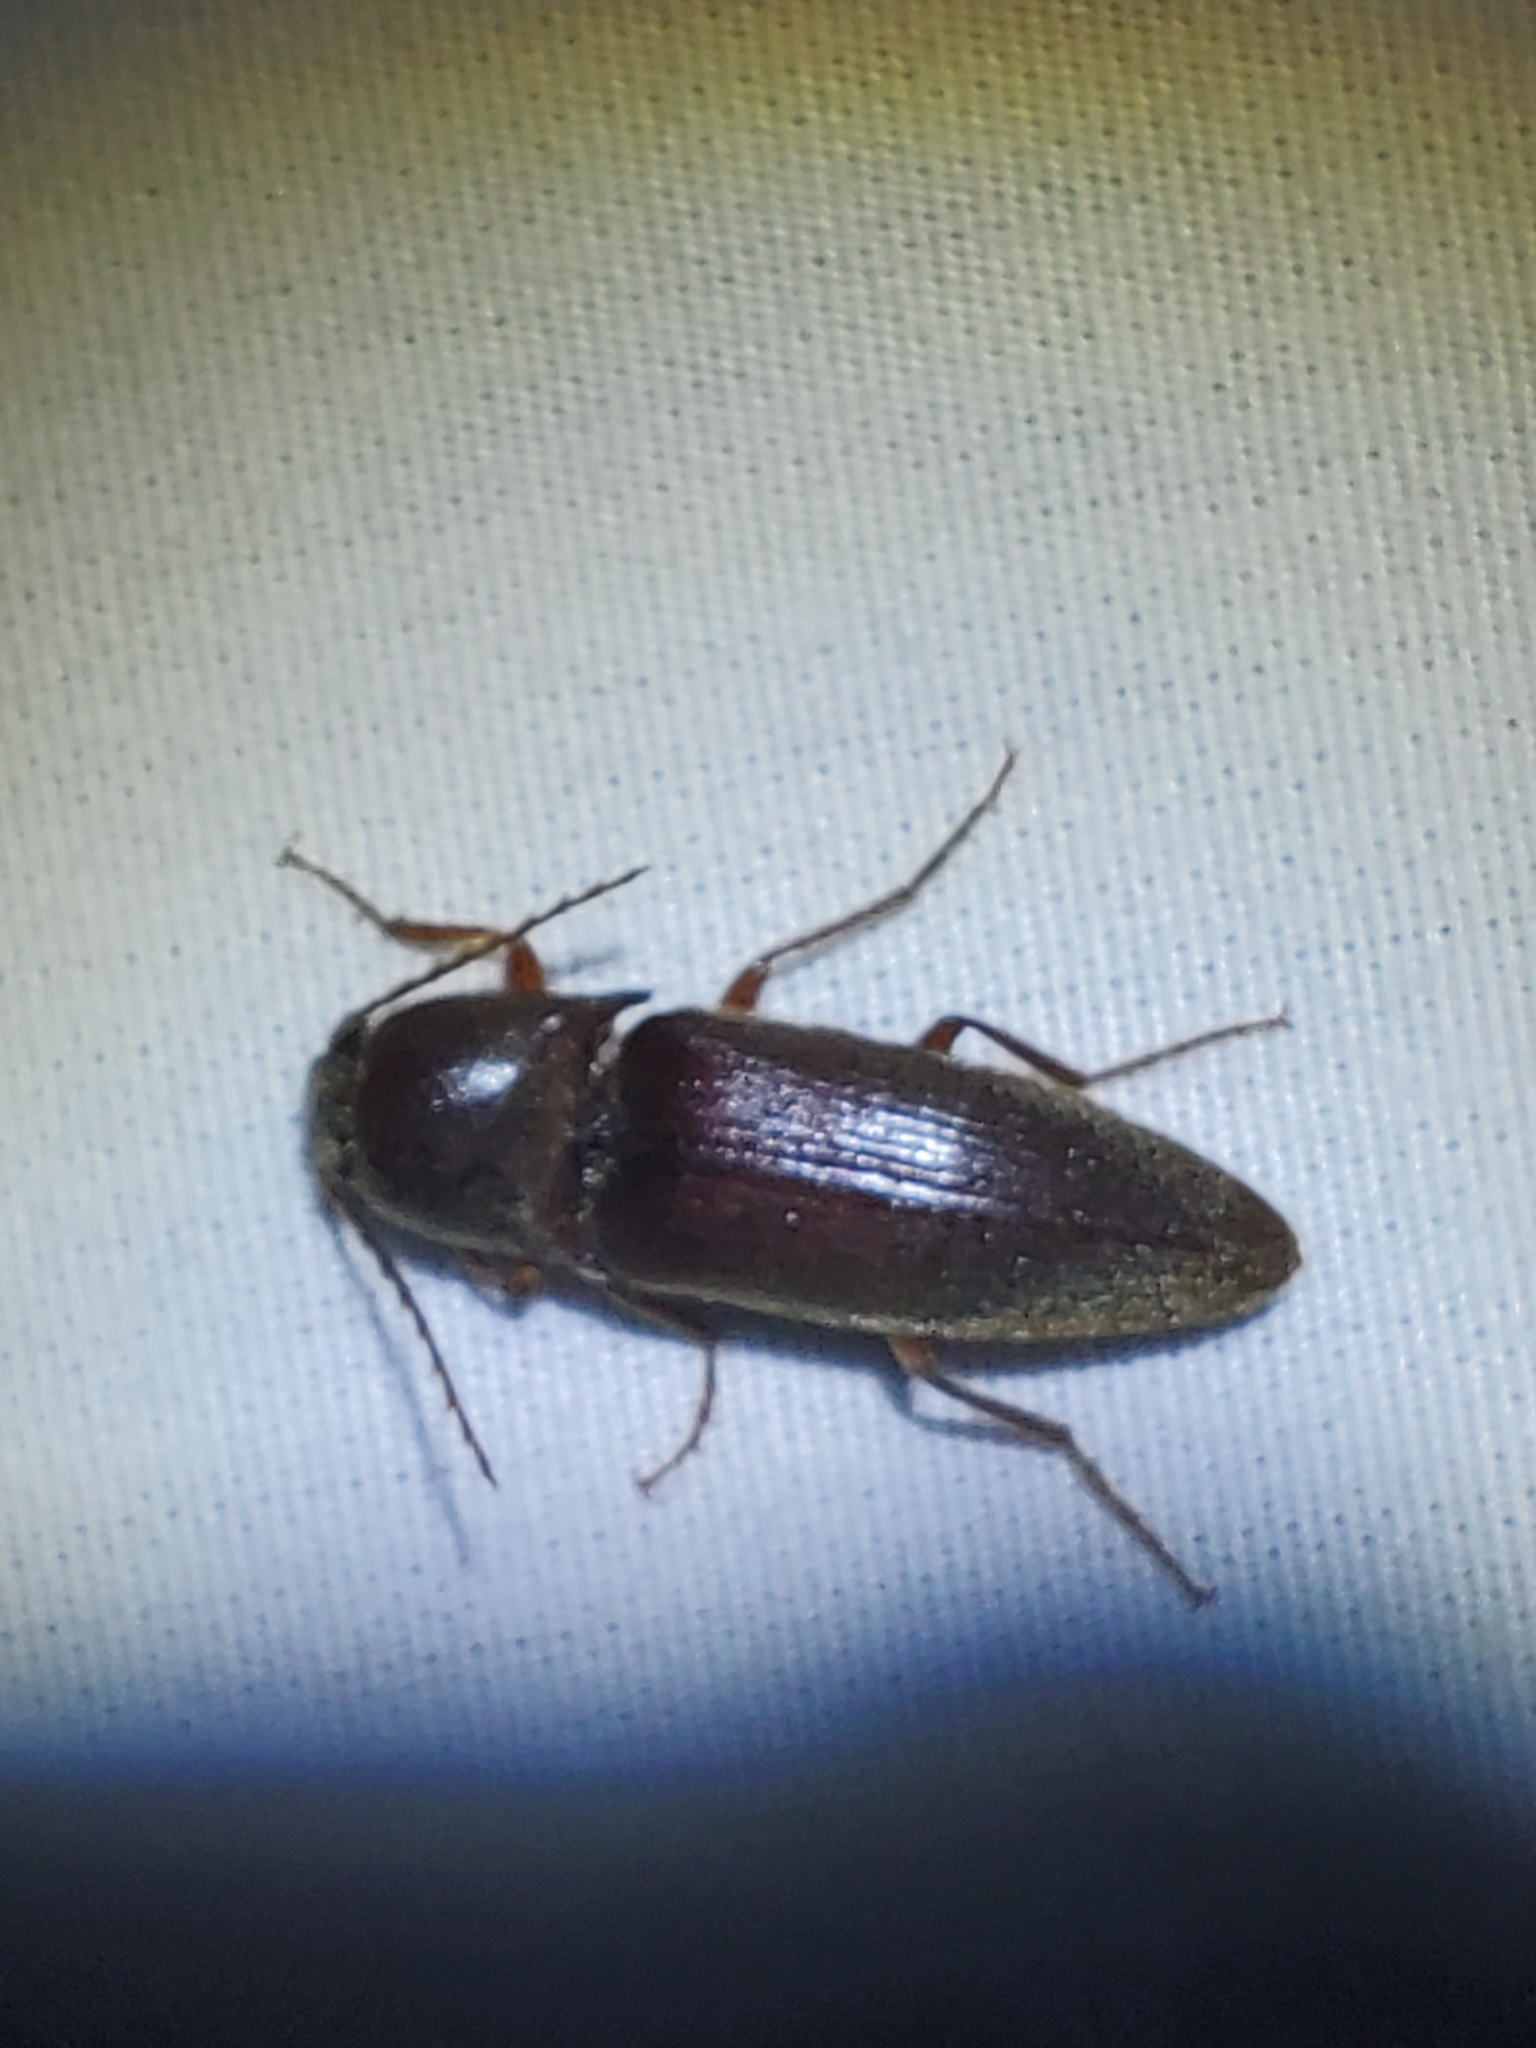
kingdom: Animalia
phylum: Arthropoda
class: Insecta
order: Coleoptera
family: Elateridae
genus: Diplostethus
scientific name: Diplostethus
